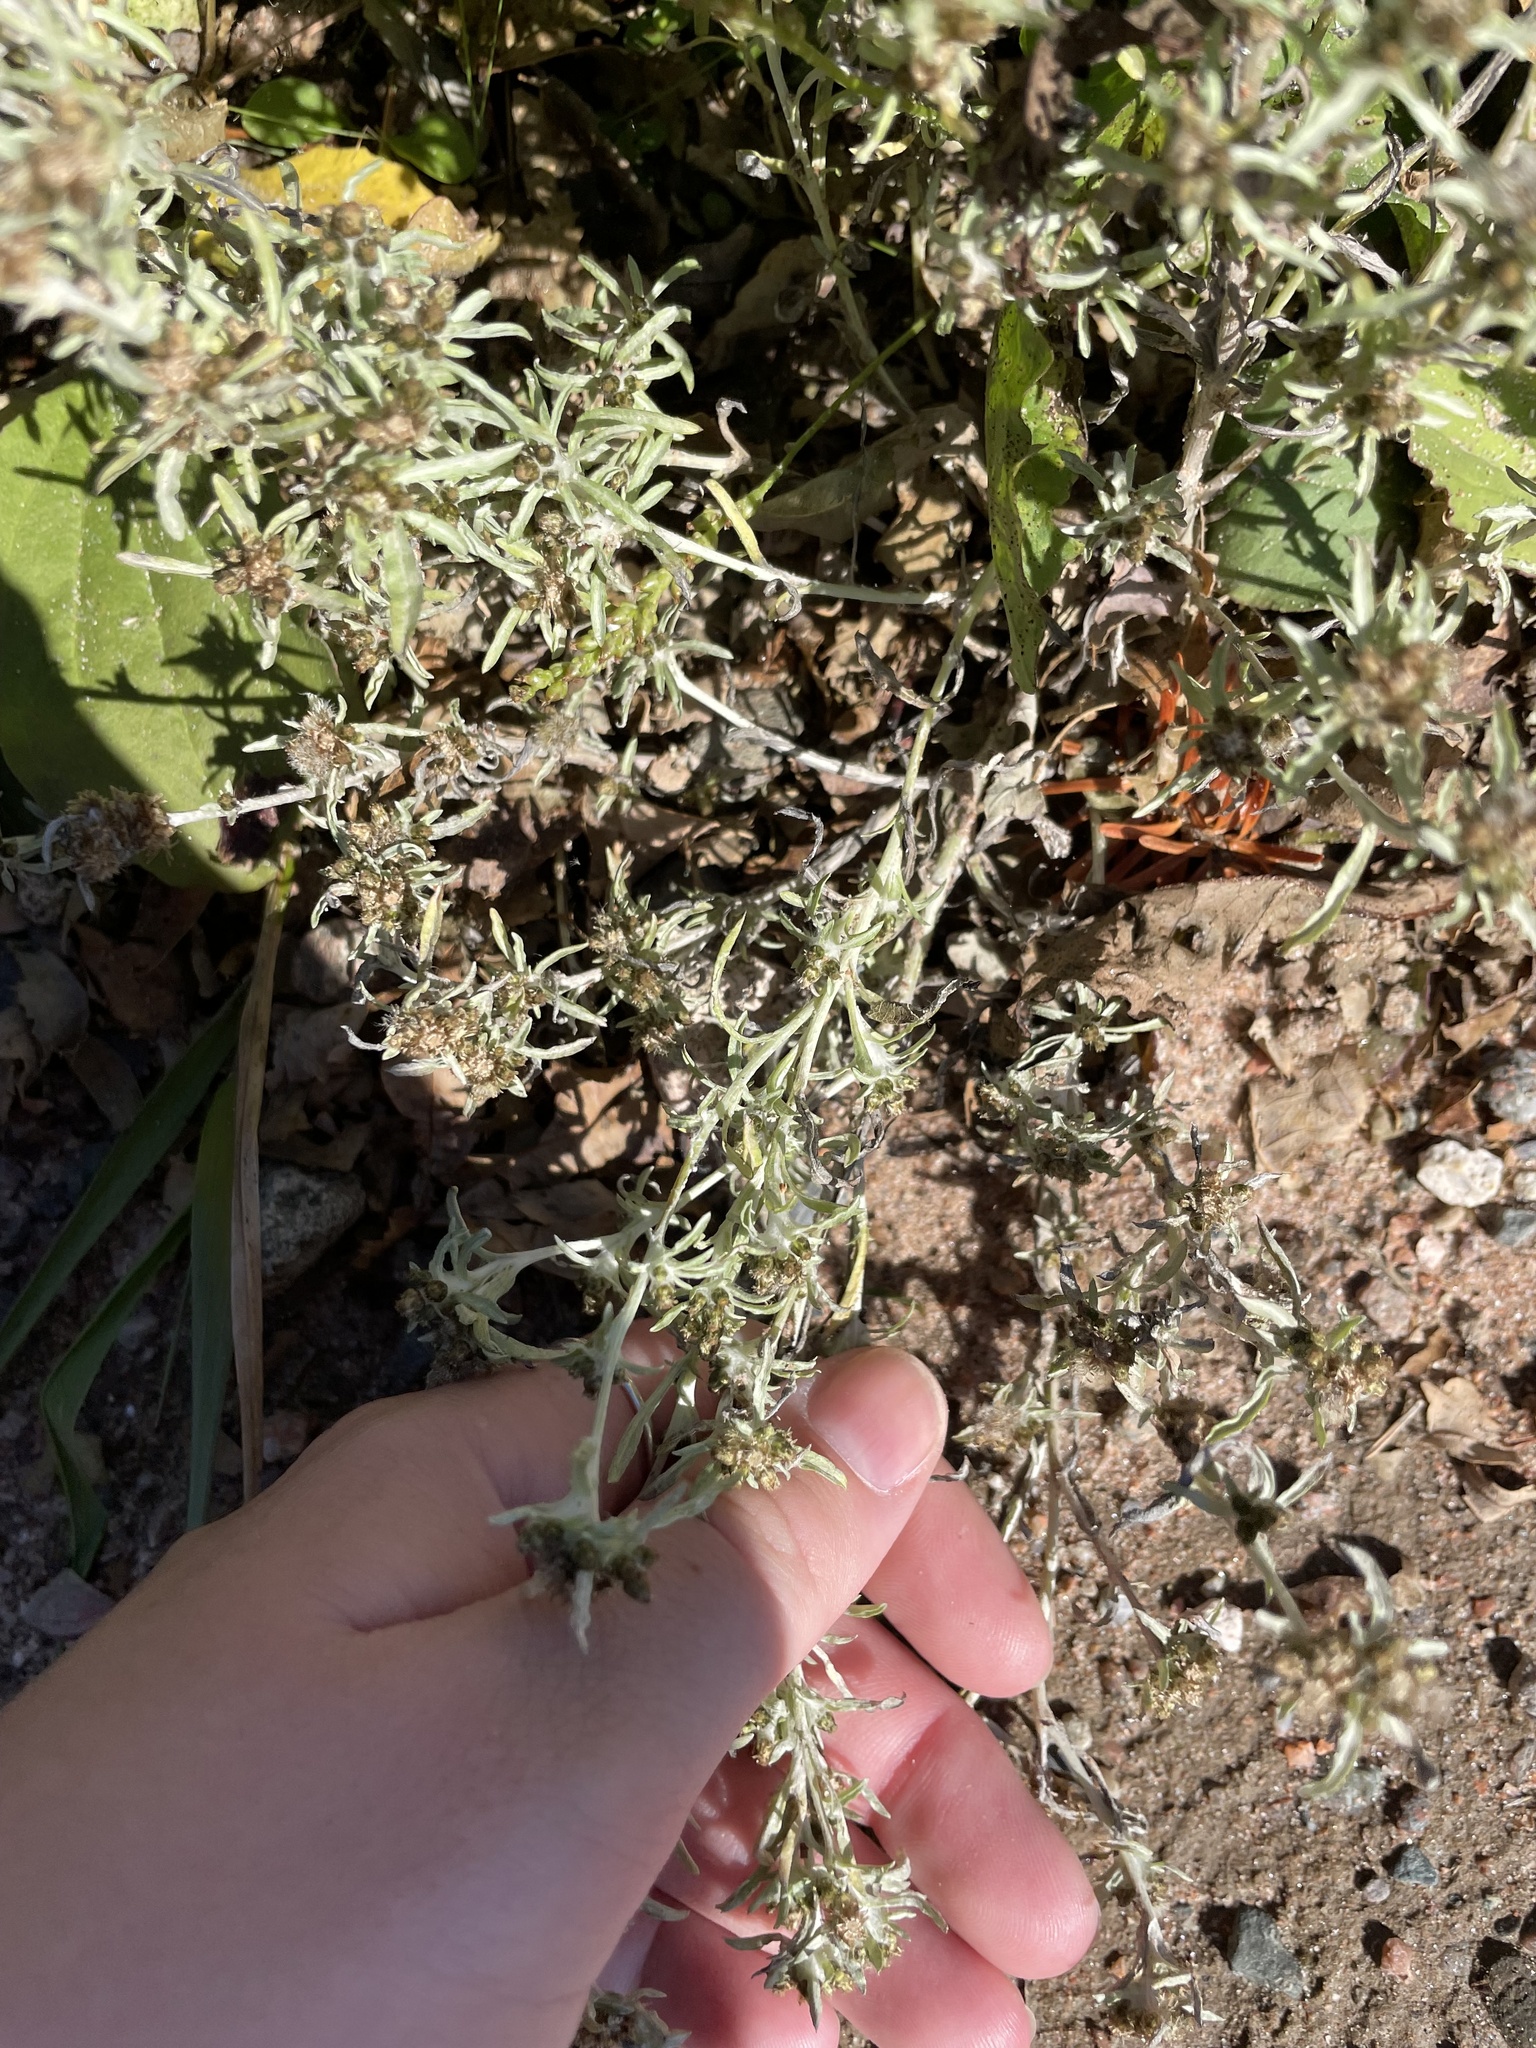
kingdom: Plantae
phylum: Tracheophyta
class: Magnoliopsida
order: Asterales
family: Asteraceae
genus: Gnaphalium
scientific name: Gnaphalium uliginosum
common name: Marsh cudweed
